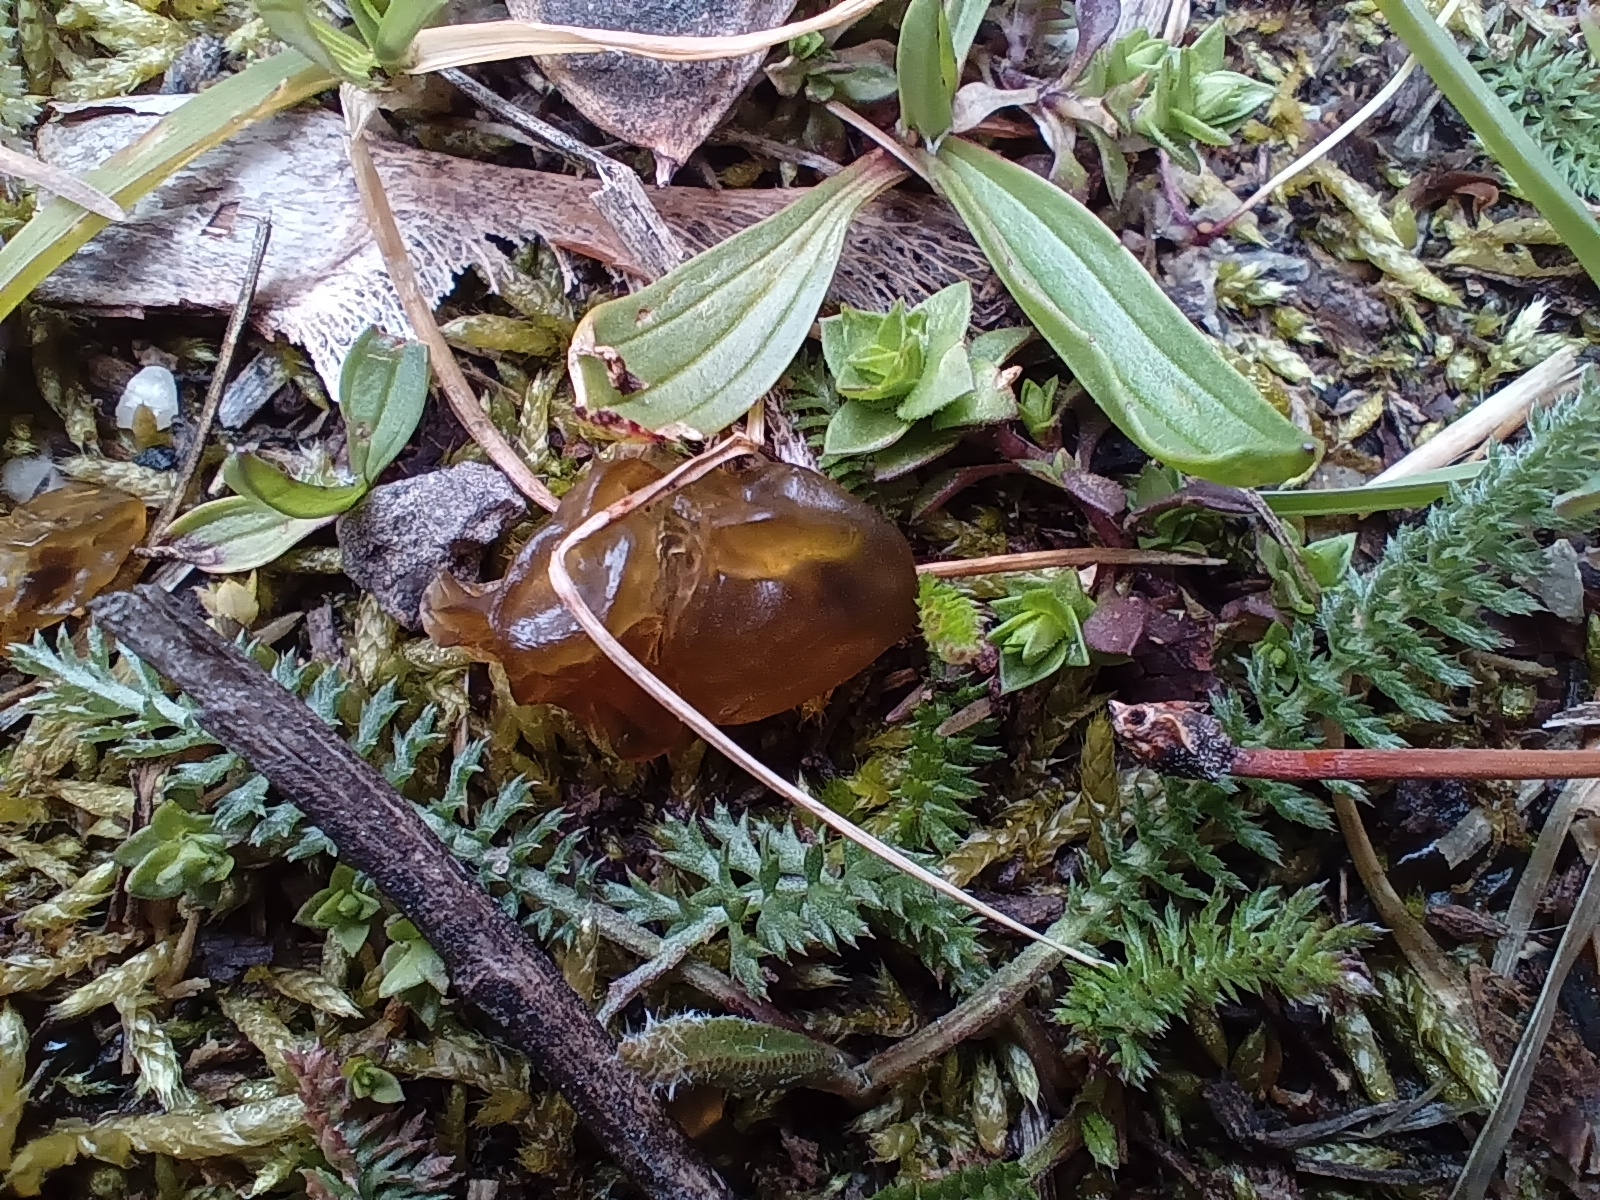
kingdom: Bacteria
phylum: Cyanobacteria
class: Cyanobacteriia
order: Cyanobacteriales
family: Nostocaceae
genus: Nostoc
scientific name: Nostoc commune
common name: Star jelly
